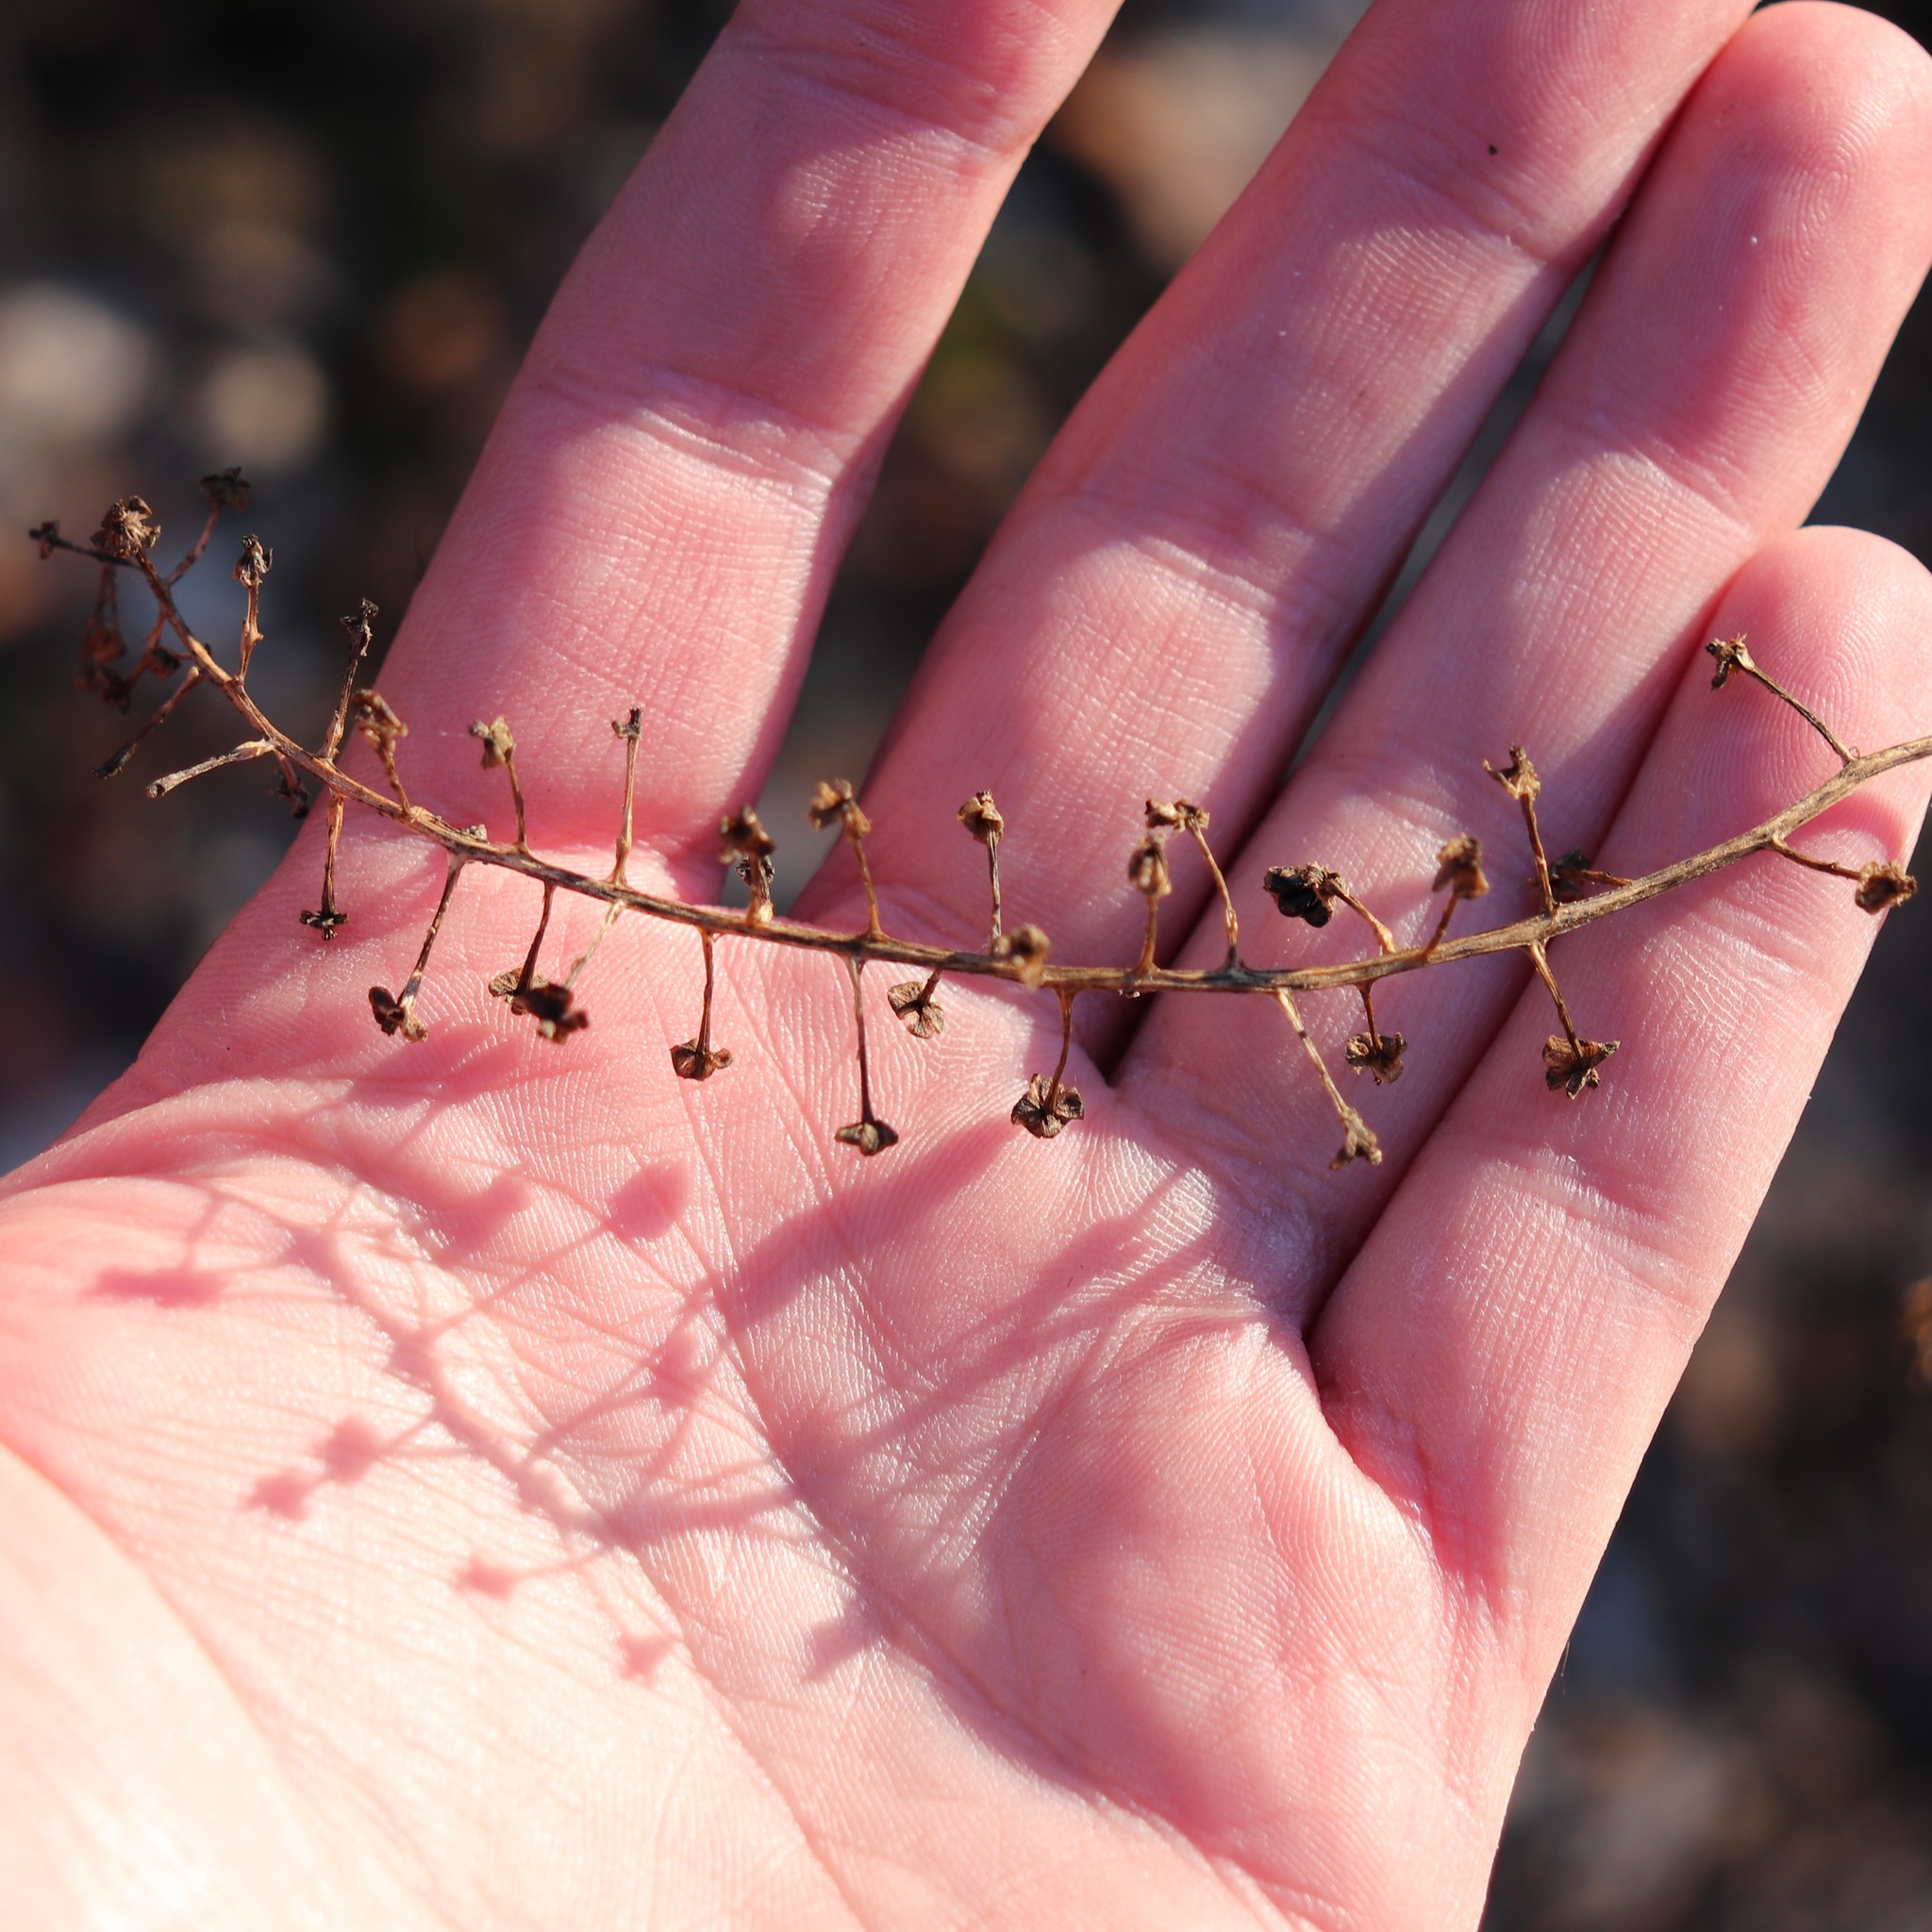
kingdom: Plantae
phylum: Tracheophyta
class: Magnoliopsida
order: Caryophyllales
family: Phytolaccaceae
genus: Phytolacca
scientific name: Phytolacca americana
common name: American pokeweed
